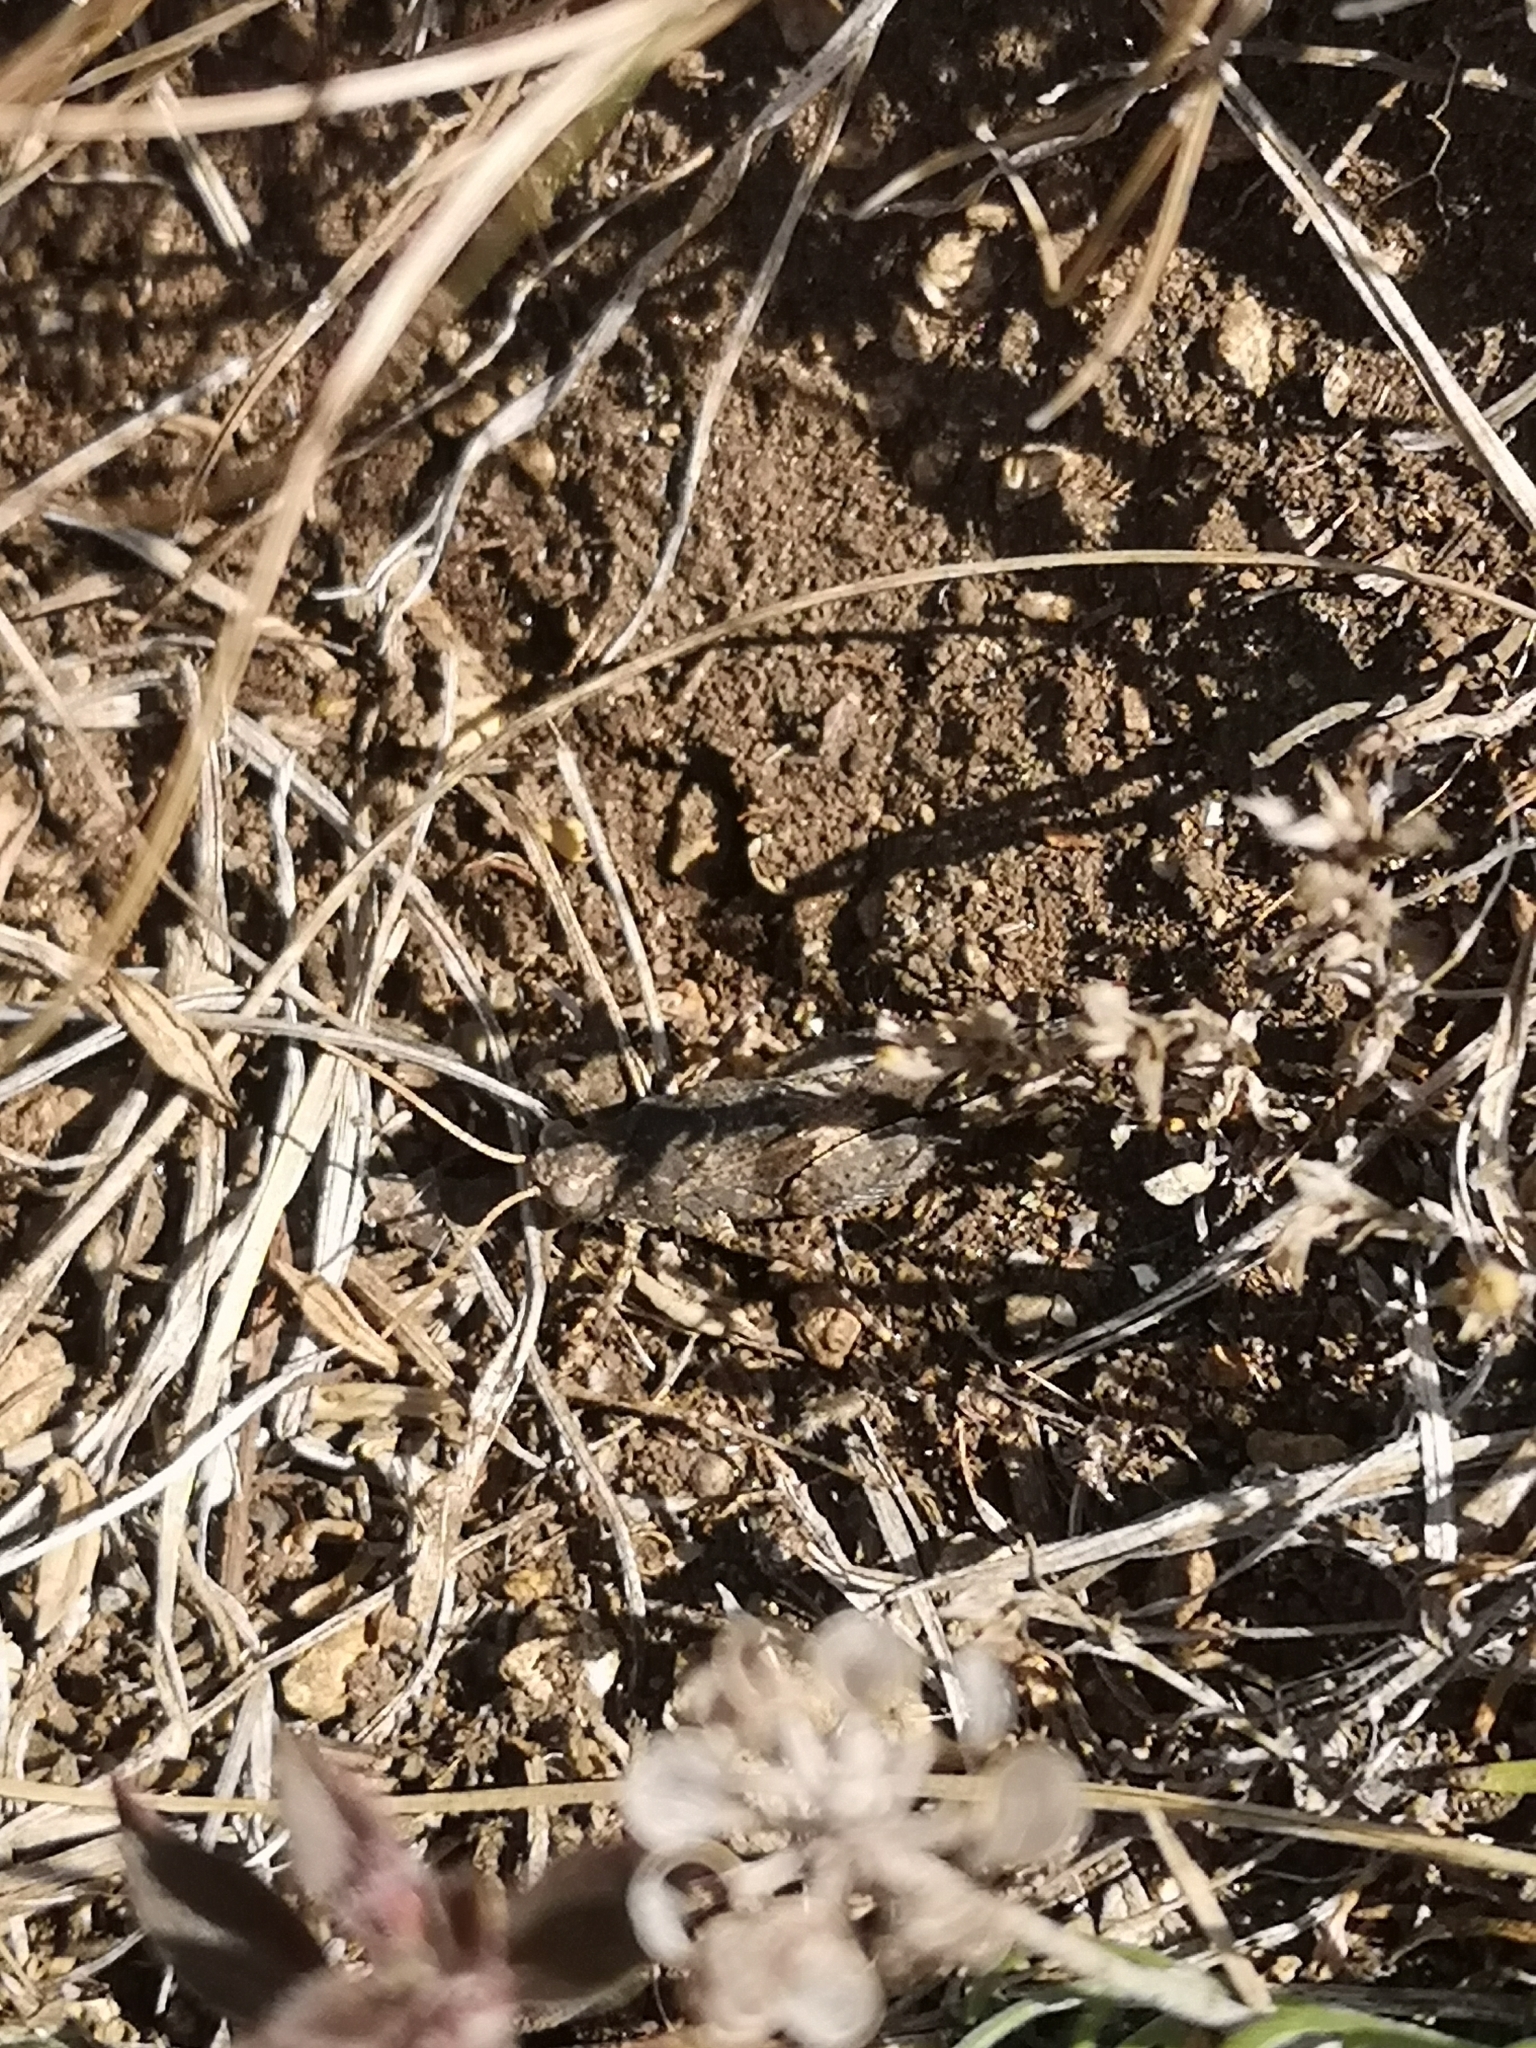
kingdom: Animalia
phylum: Arthropoda
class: Insecta
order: Orthoptera
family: Acrididae
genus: Oedipoda
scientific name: Oedipoda caerulescens
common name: Blue-winged grasshopper
